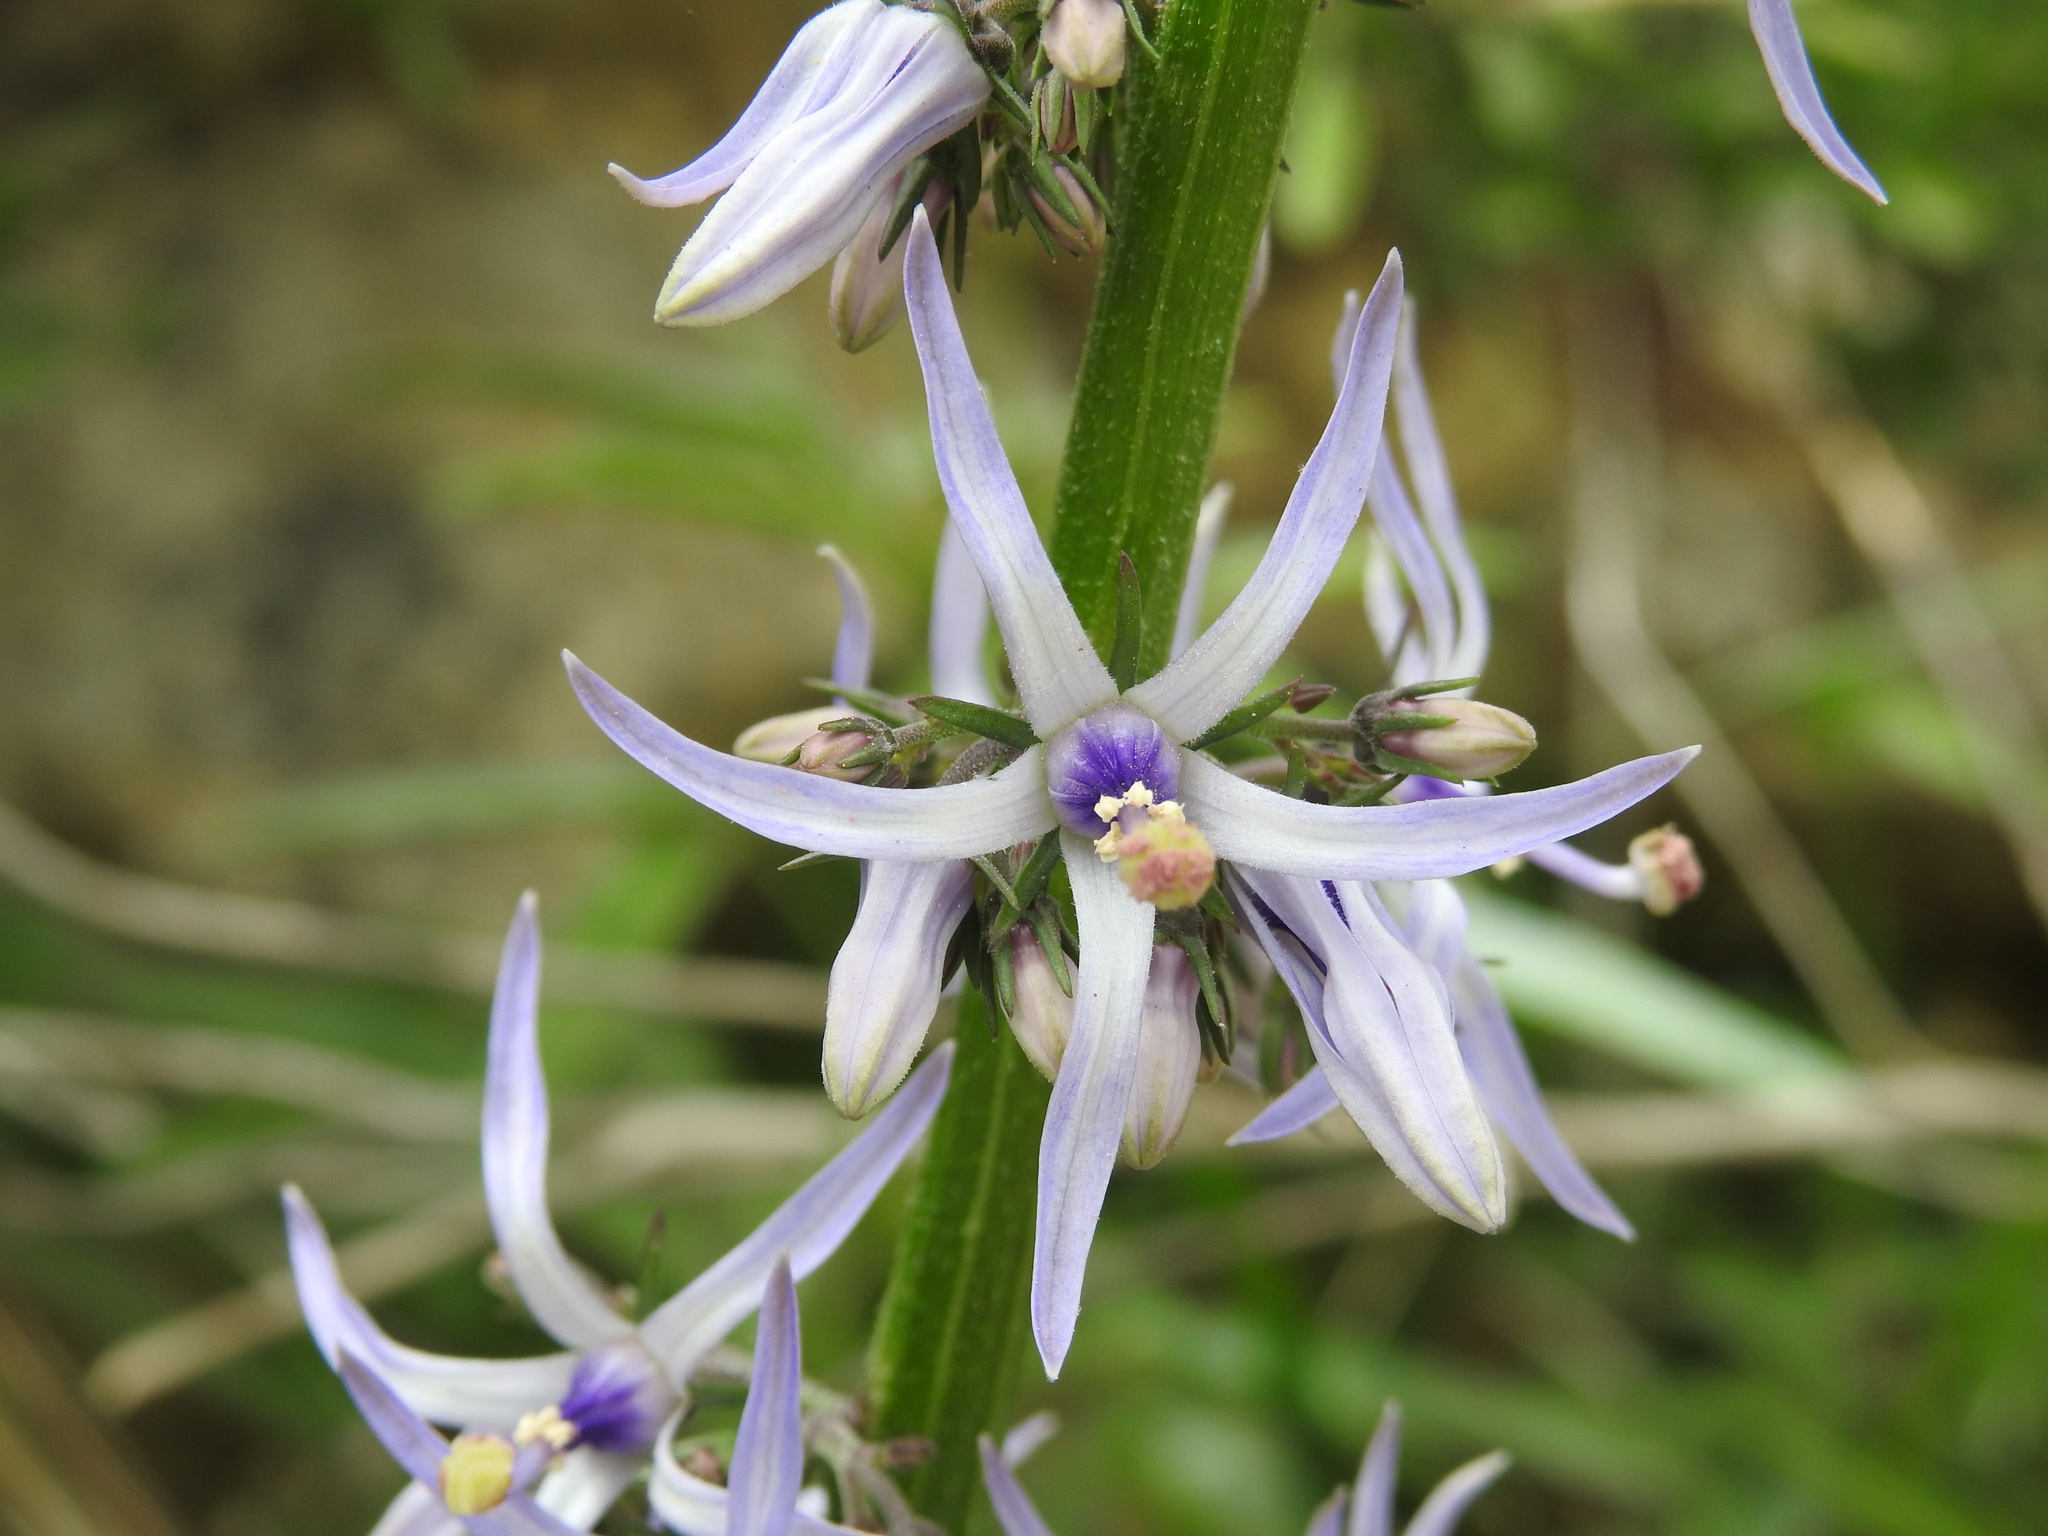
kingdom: Plantae
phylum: Tracheophyta
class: Magnoliopsida
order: Asterales
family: Campanulaceae
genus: Petromarula
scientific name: Petromarula pinnata
